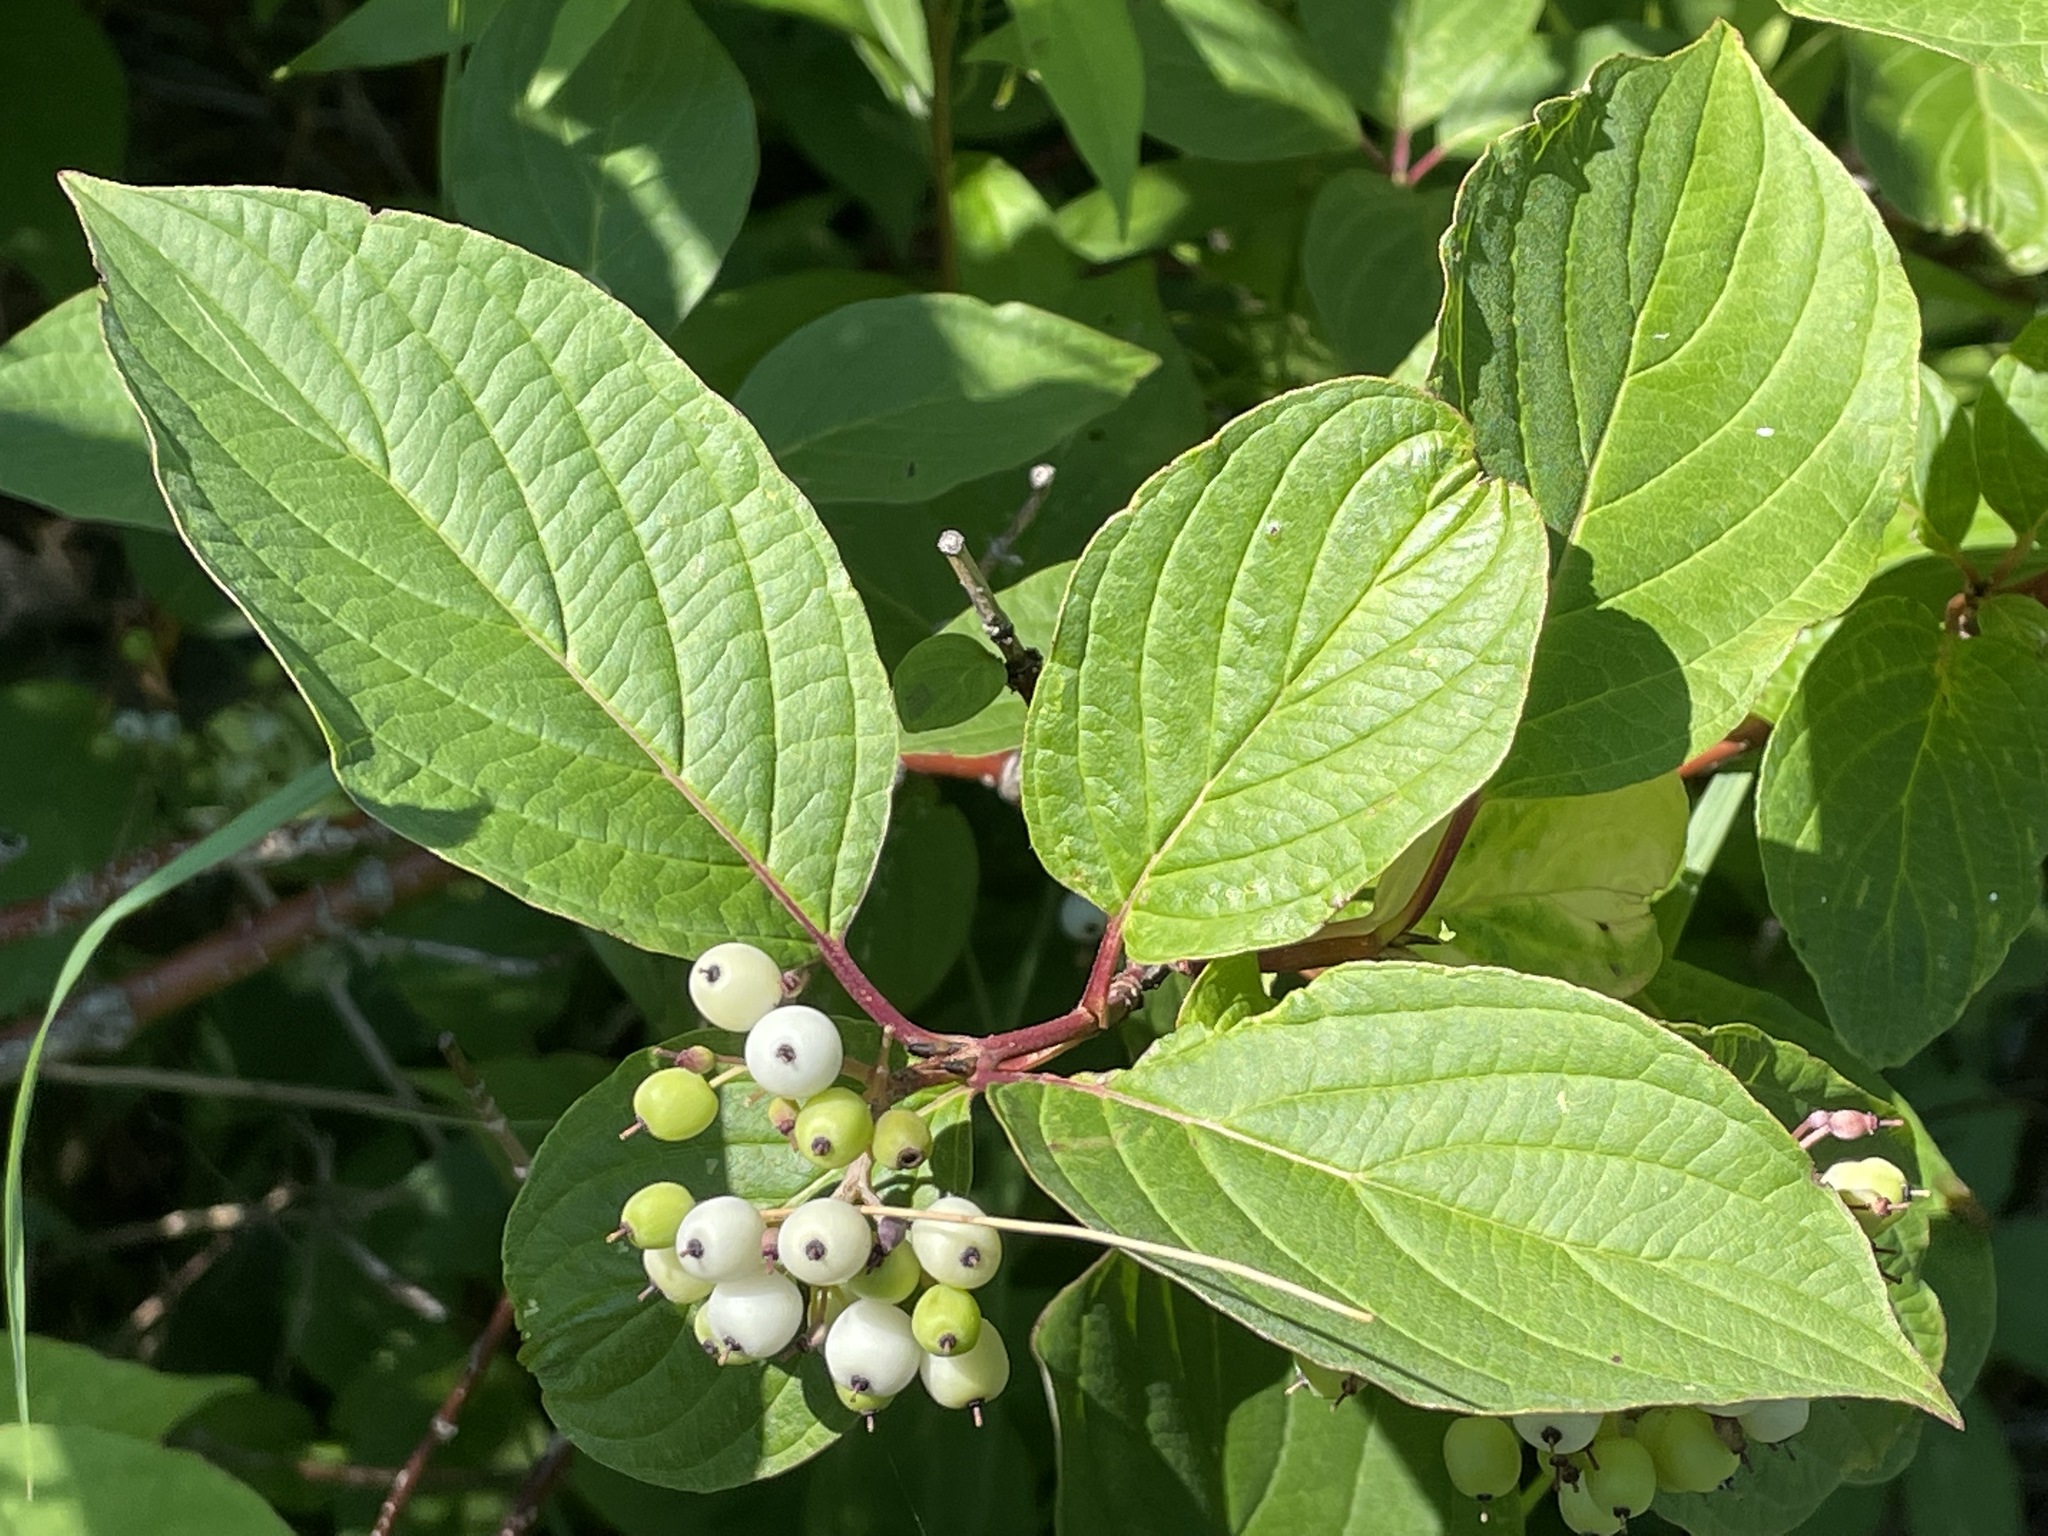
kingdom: Plantae
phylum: Tracheophyta
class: Magnoliopsida
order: Cornales
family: Cornaceae
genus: Cornus
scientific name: Cornus sericea
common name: Red-osier dogwood
